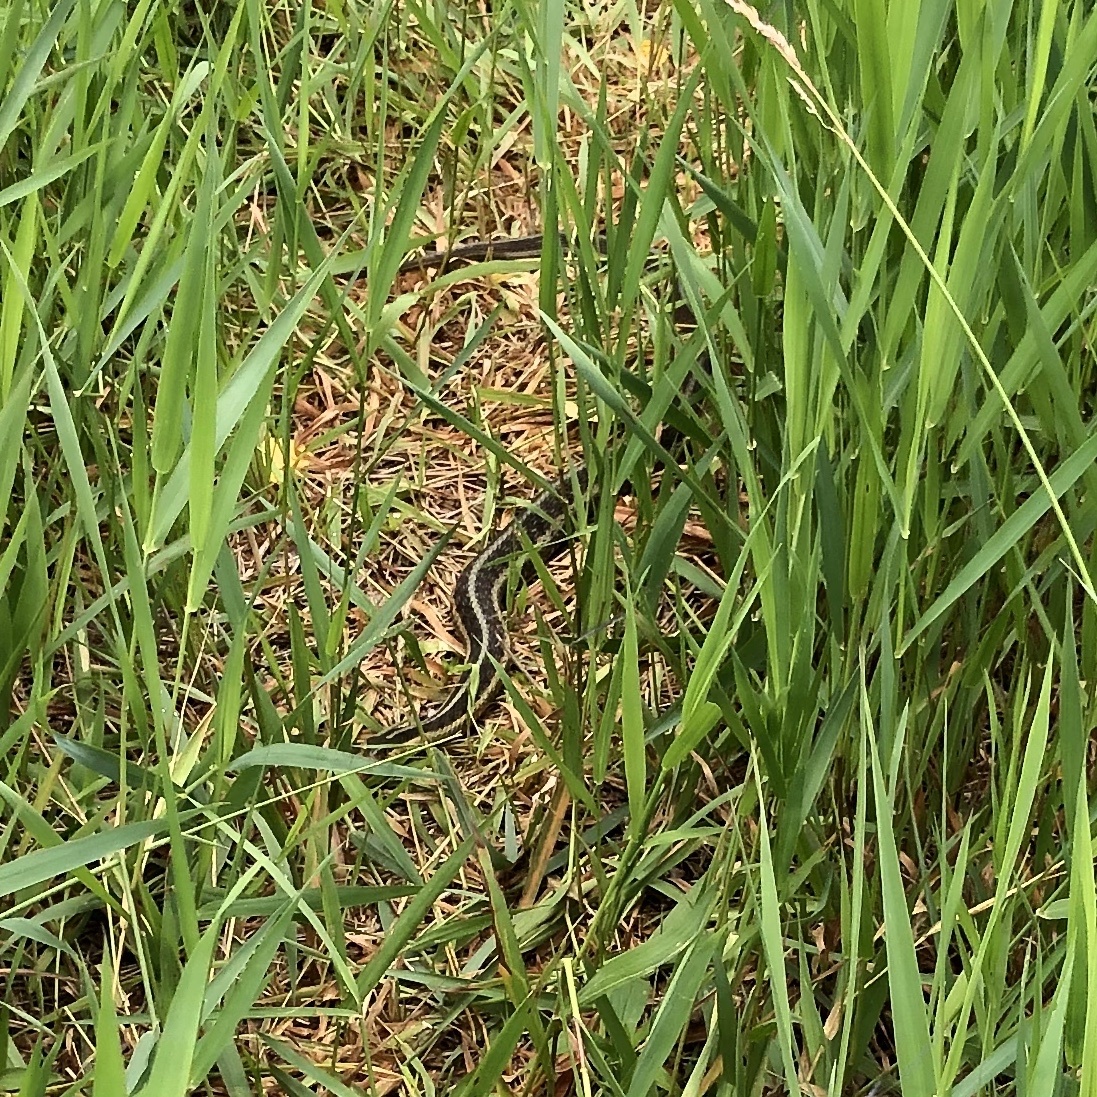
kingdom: Animalia
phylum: Chordata
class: Squamata
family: Colubridae
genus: Thamnophis
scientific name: Thamnophis sirtalis
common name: Common garter snake
